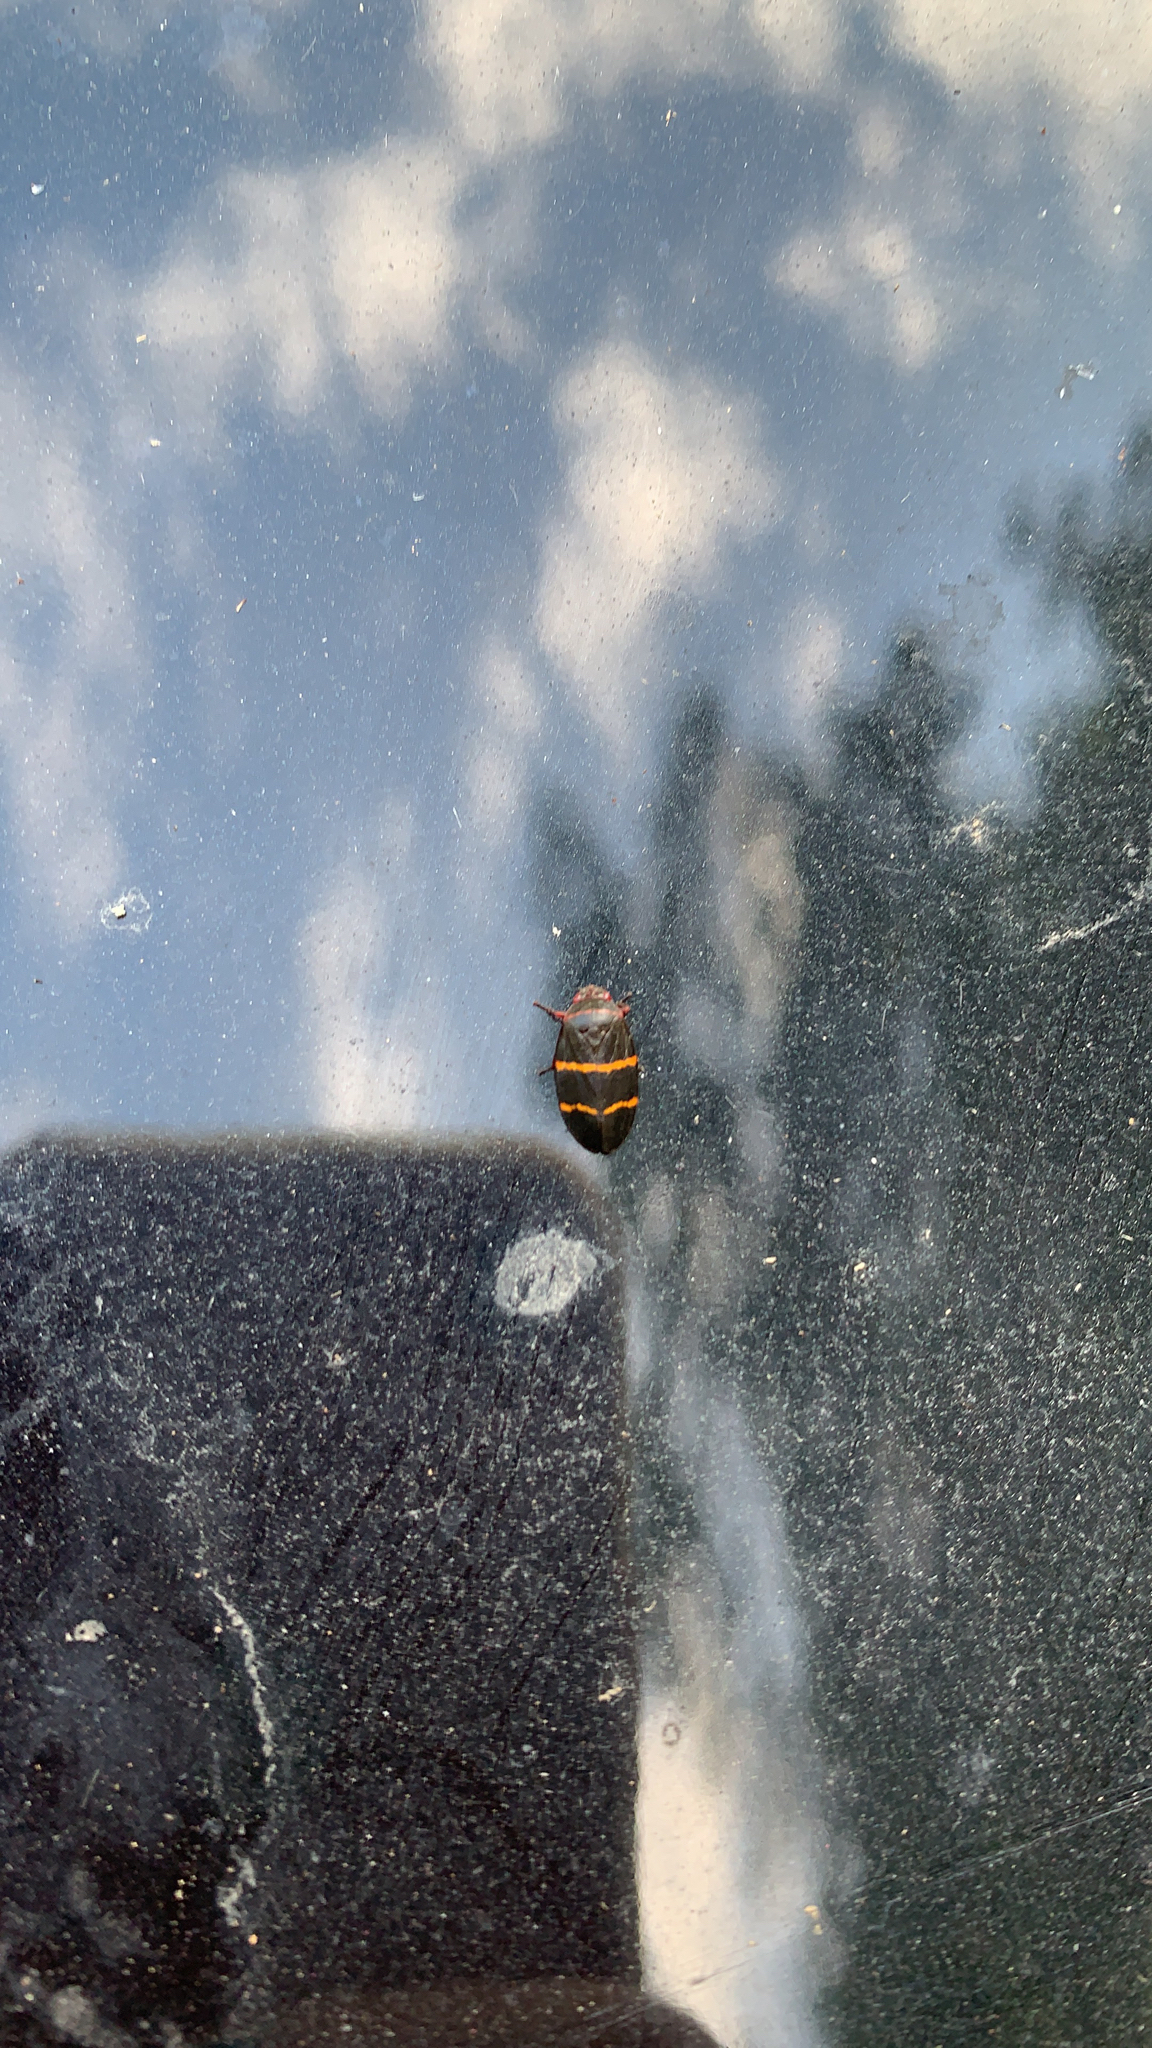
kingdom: Animalia
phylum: Arthropoda
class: Insecta
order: Hemiptera
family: Cercopidae
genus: Prosapia
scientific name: Prosapia bicincta
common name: Twolined spittlebug
